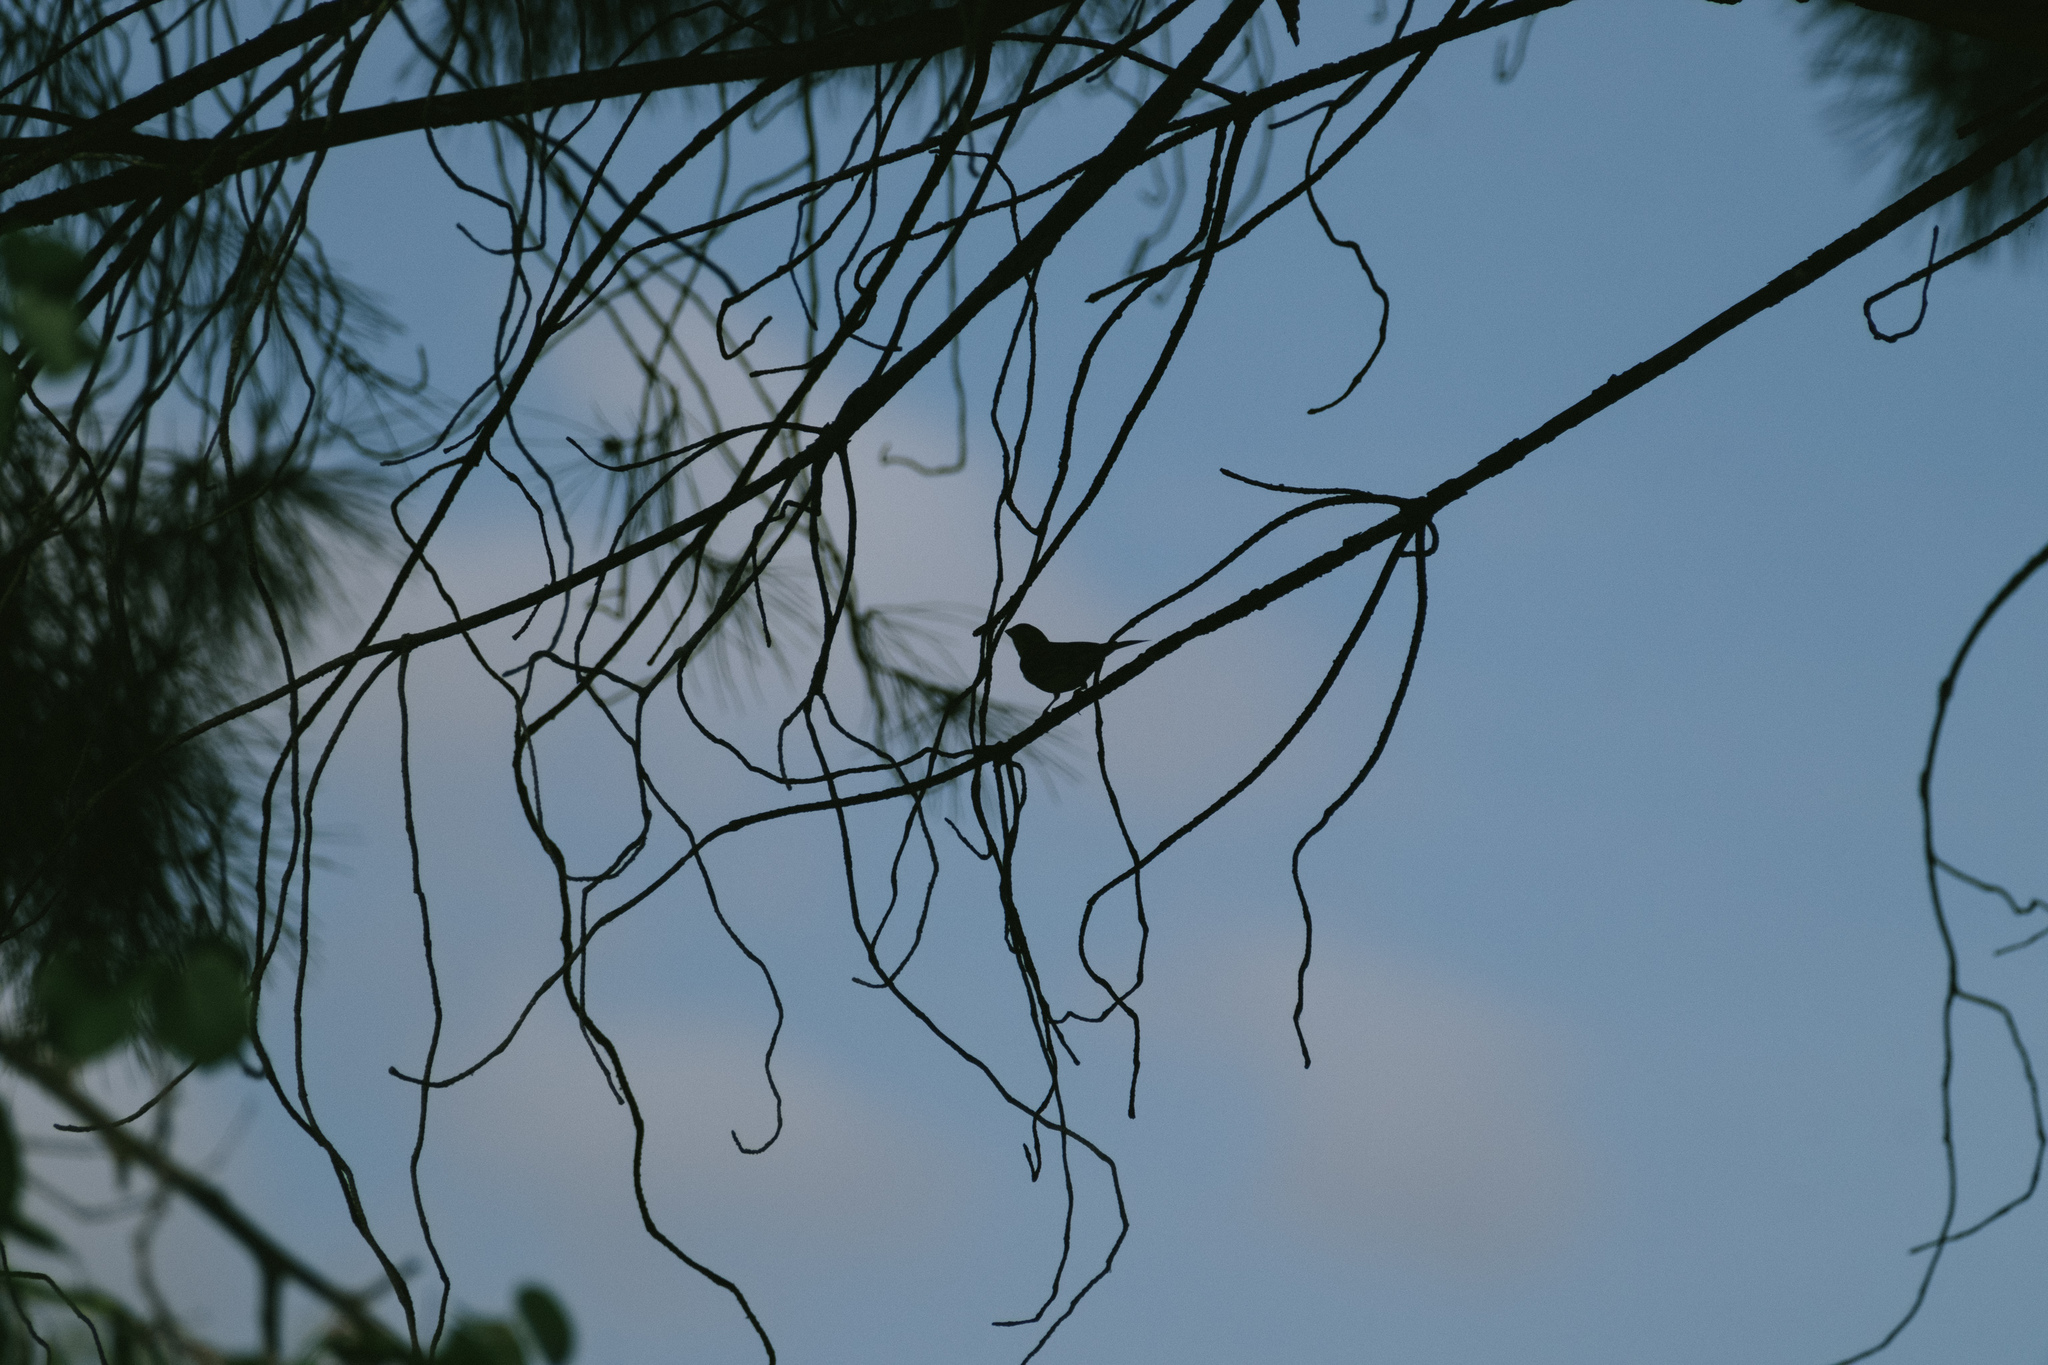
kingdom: Animalia
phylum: Chordata
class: Aves
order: Passeriformes
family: Fringillidae
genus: Serinus
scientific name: Serinus serinus
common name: European serin
